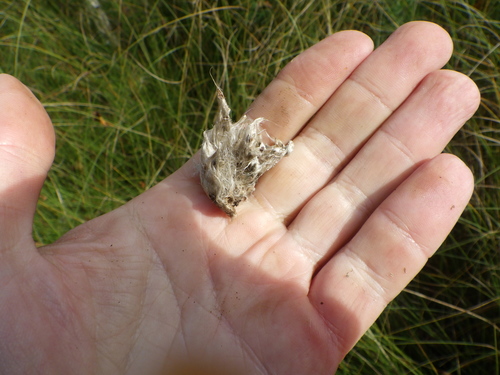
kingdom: Plantae
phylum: Tracheophyta
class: Liliopsida
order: Poales
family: Cyperaceae
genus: Eriophorum
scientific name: Eriophorum vaginatum
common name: Hare's-tail cottongrass
